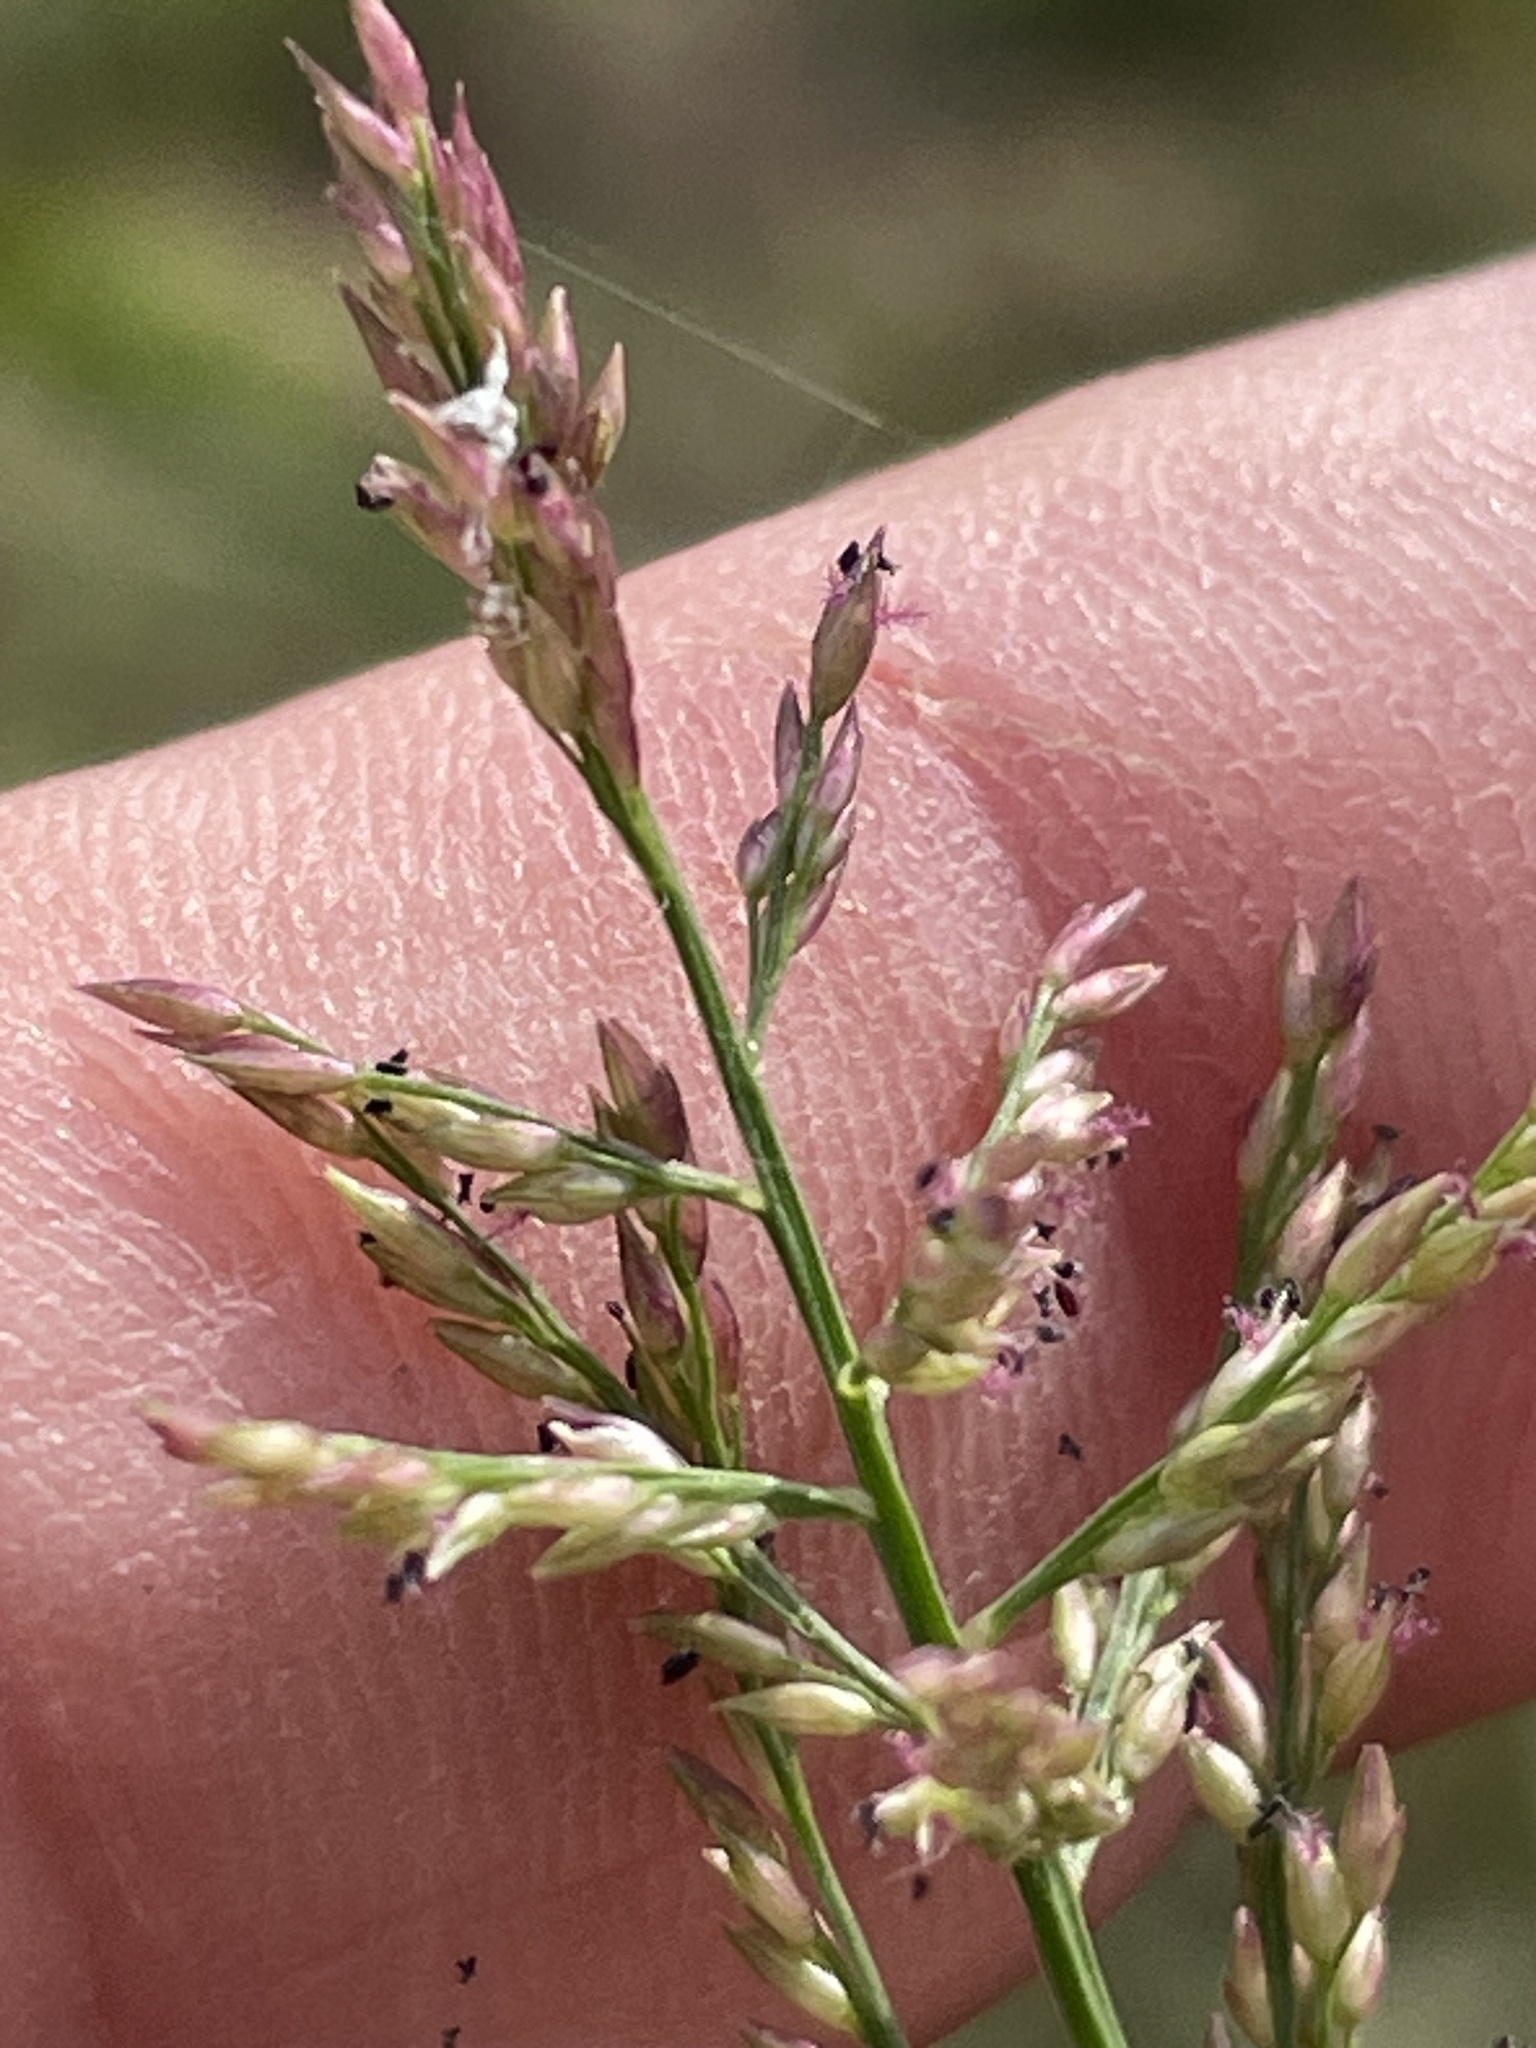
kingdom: Plantae
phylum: Tracheophyta
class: Liliopsida
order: Poales
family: Poaceae
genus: Coleataenia
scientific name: Coleataenia rigidula
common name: Redtop panicgrass
